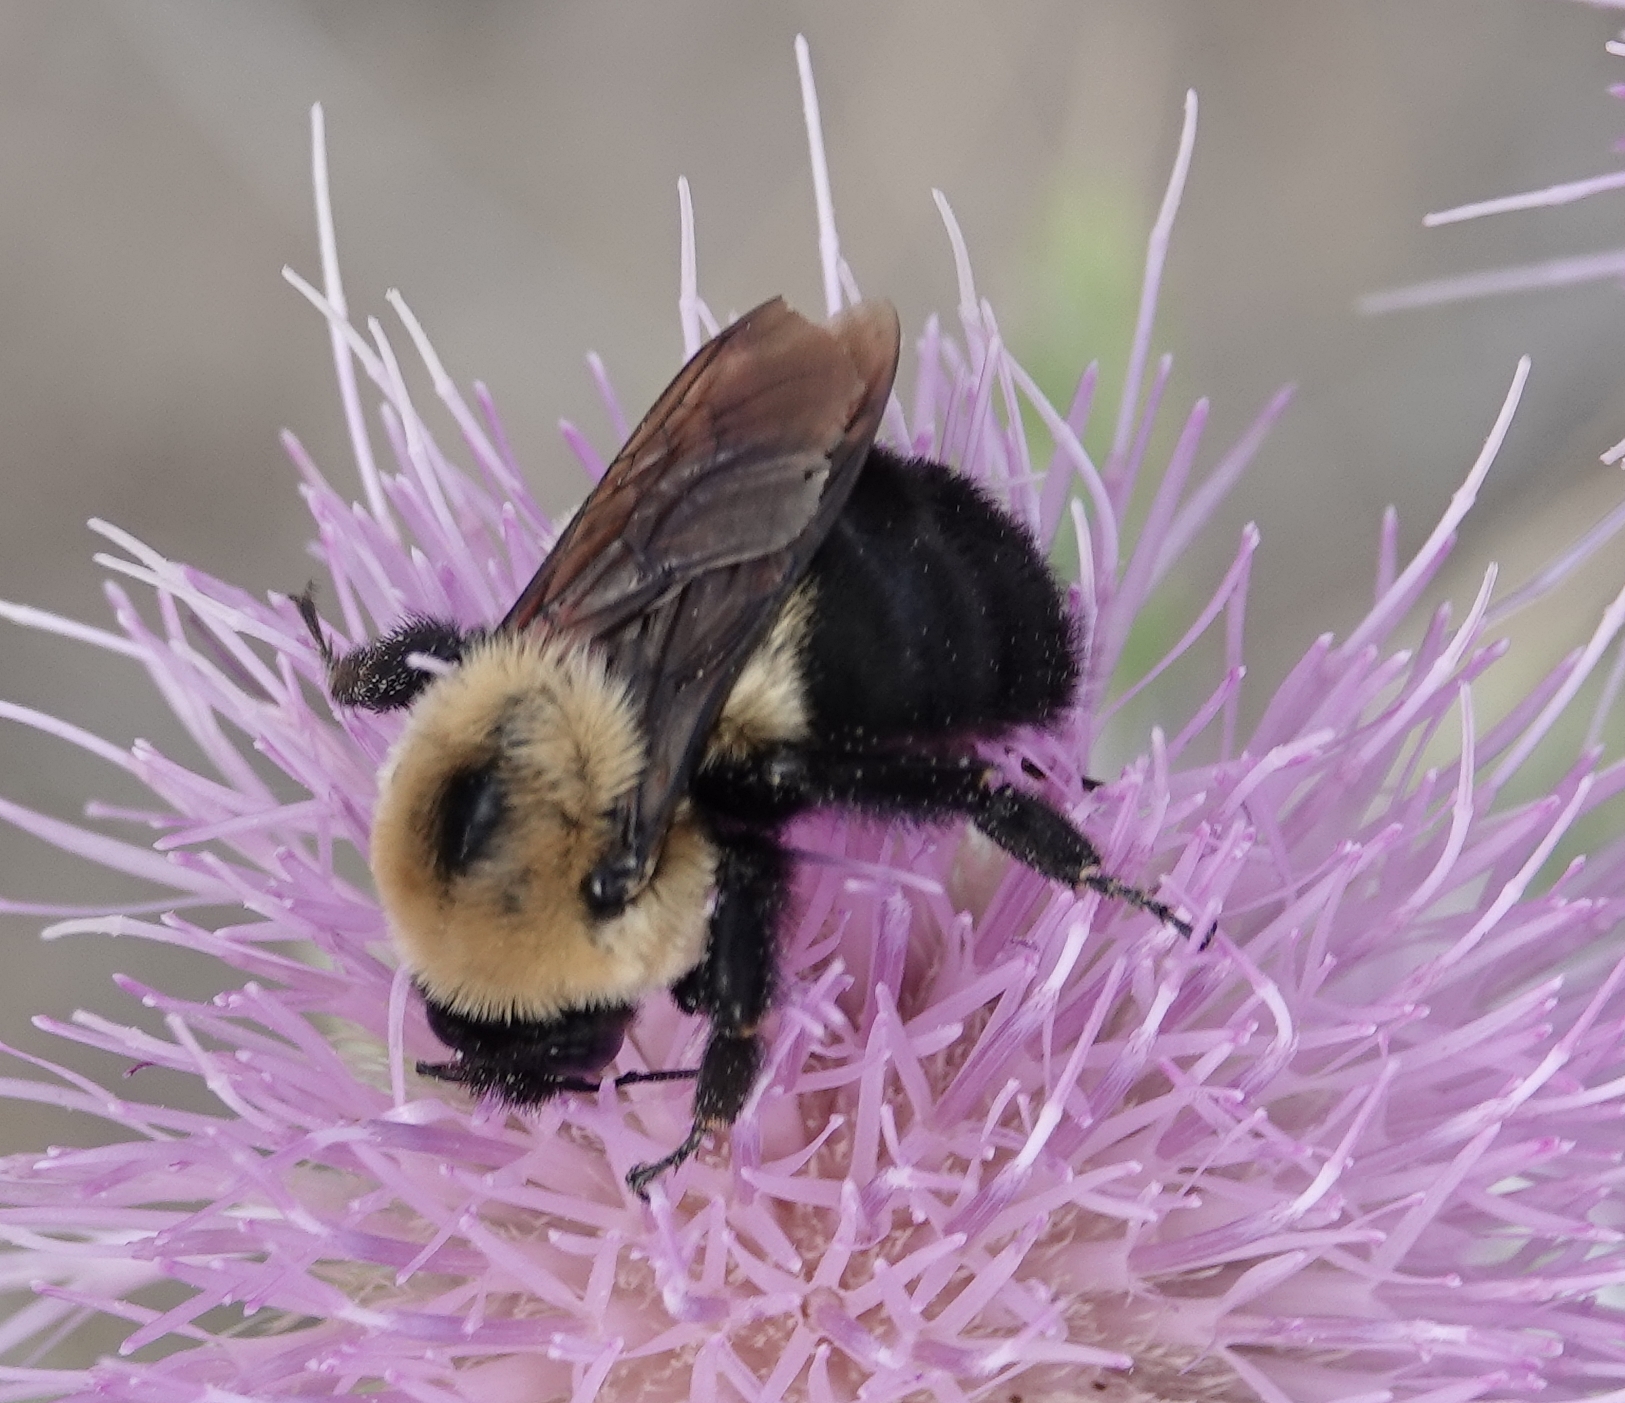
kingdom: Animalia
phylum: Arthropoda
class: Insecta
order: Hymenoptera
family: Apidae
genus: Bombus
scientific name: Bombus griseocollis
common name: Brown-belted bumble bee
